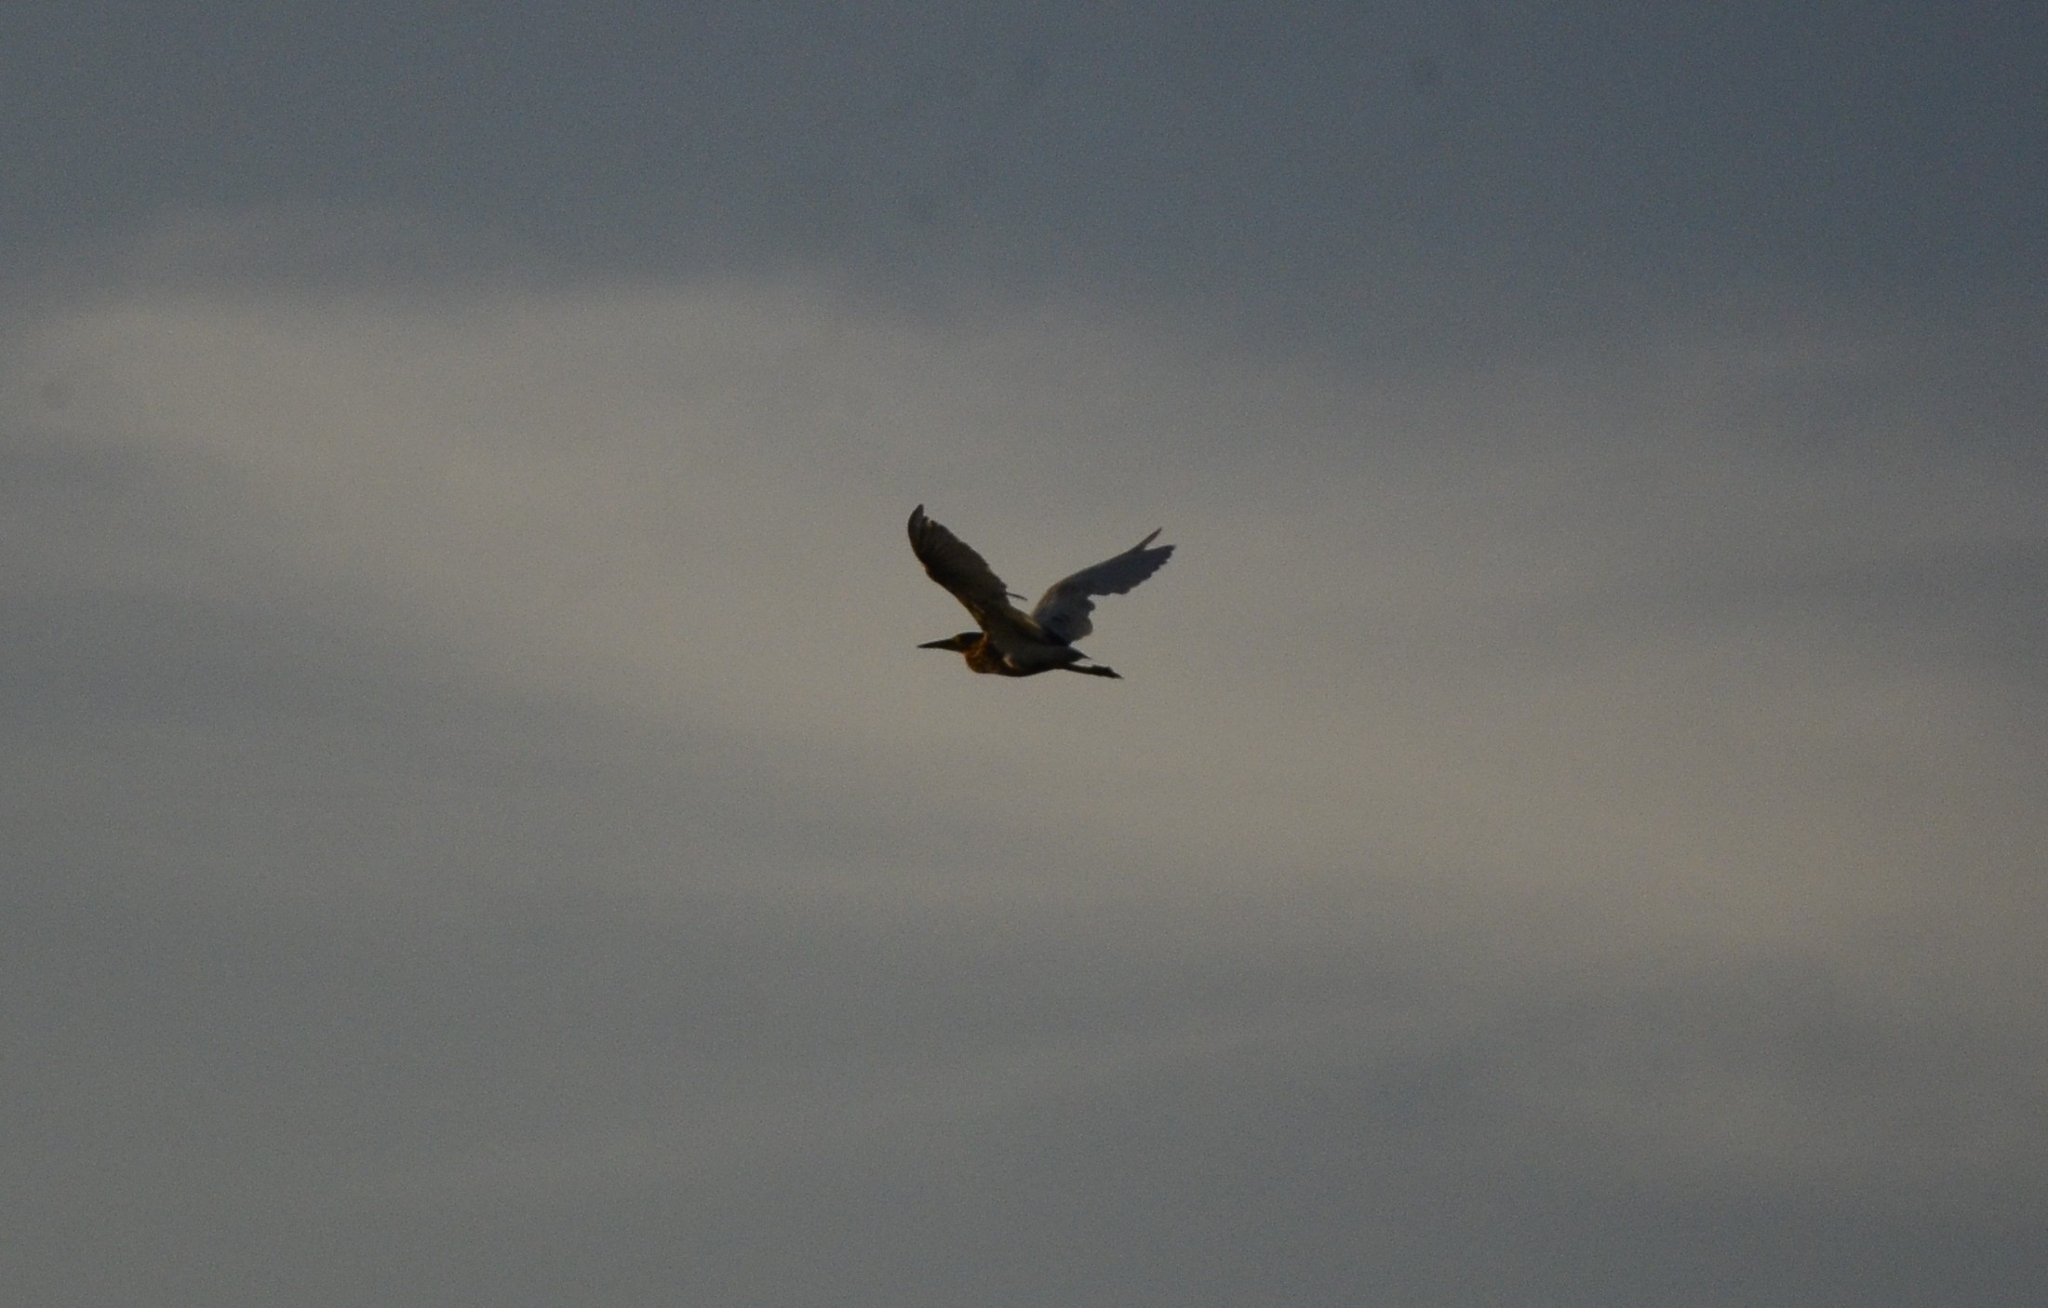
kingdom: Animalia
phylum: Chordata
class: Aves
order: Pelecaniformes
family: Ardeidae
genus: Ardeola
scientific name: Ardeola grayii
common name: Indian pond heron
